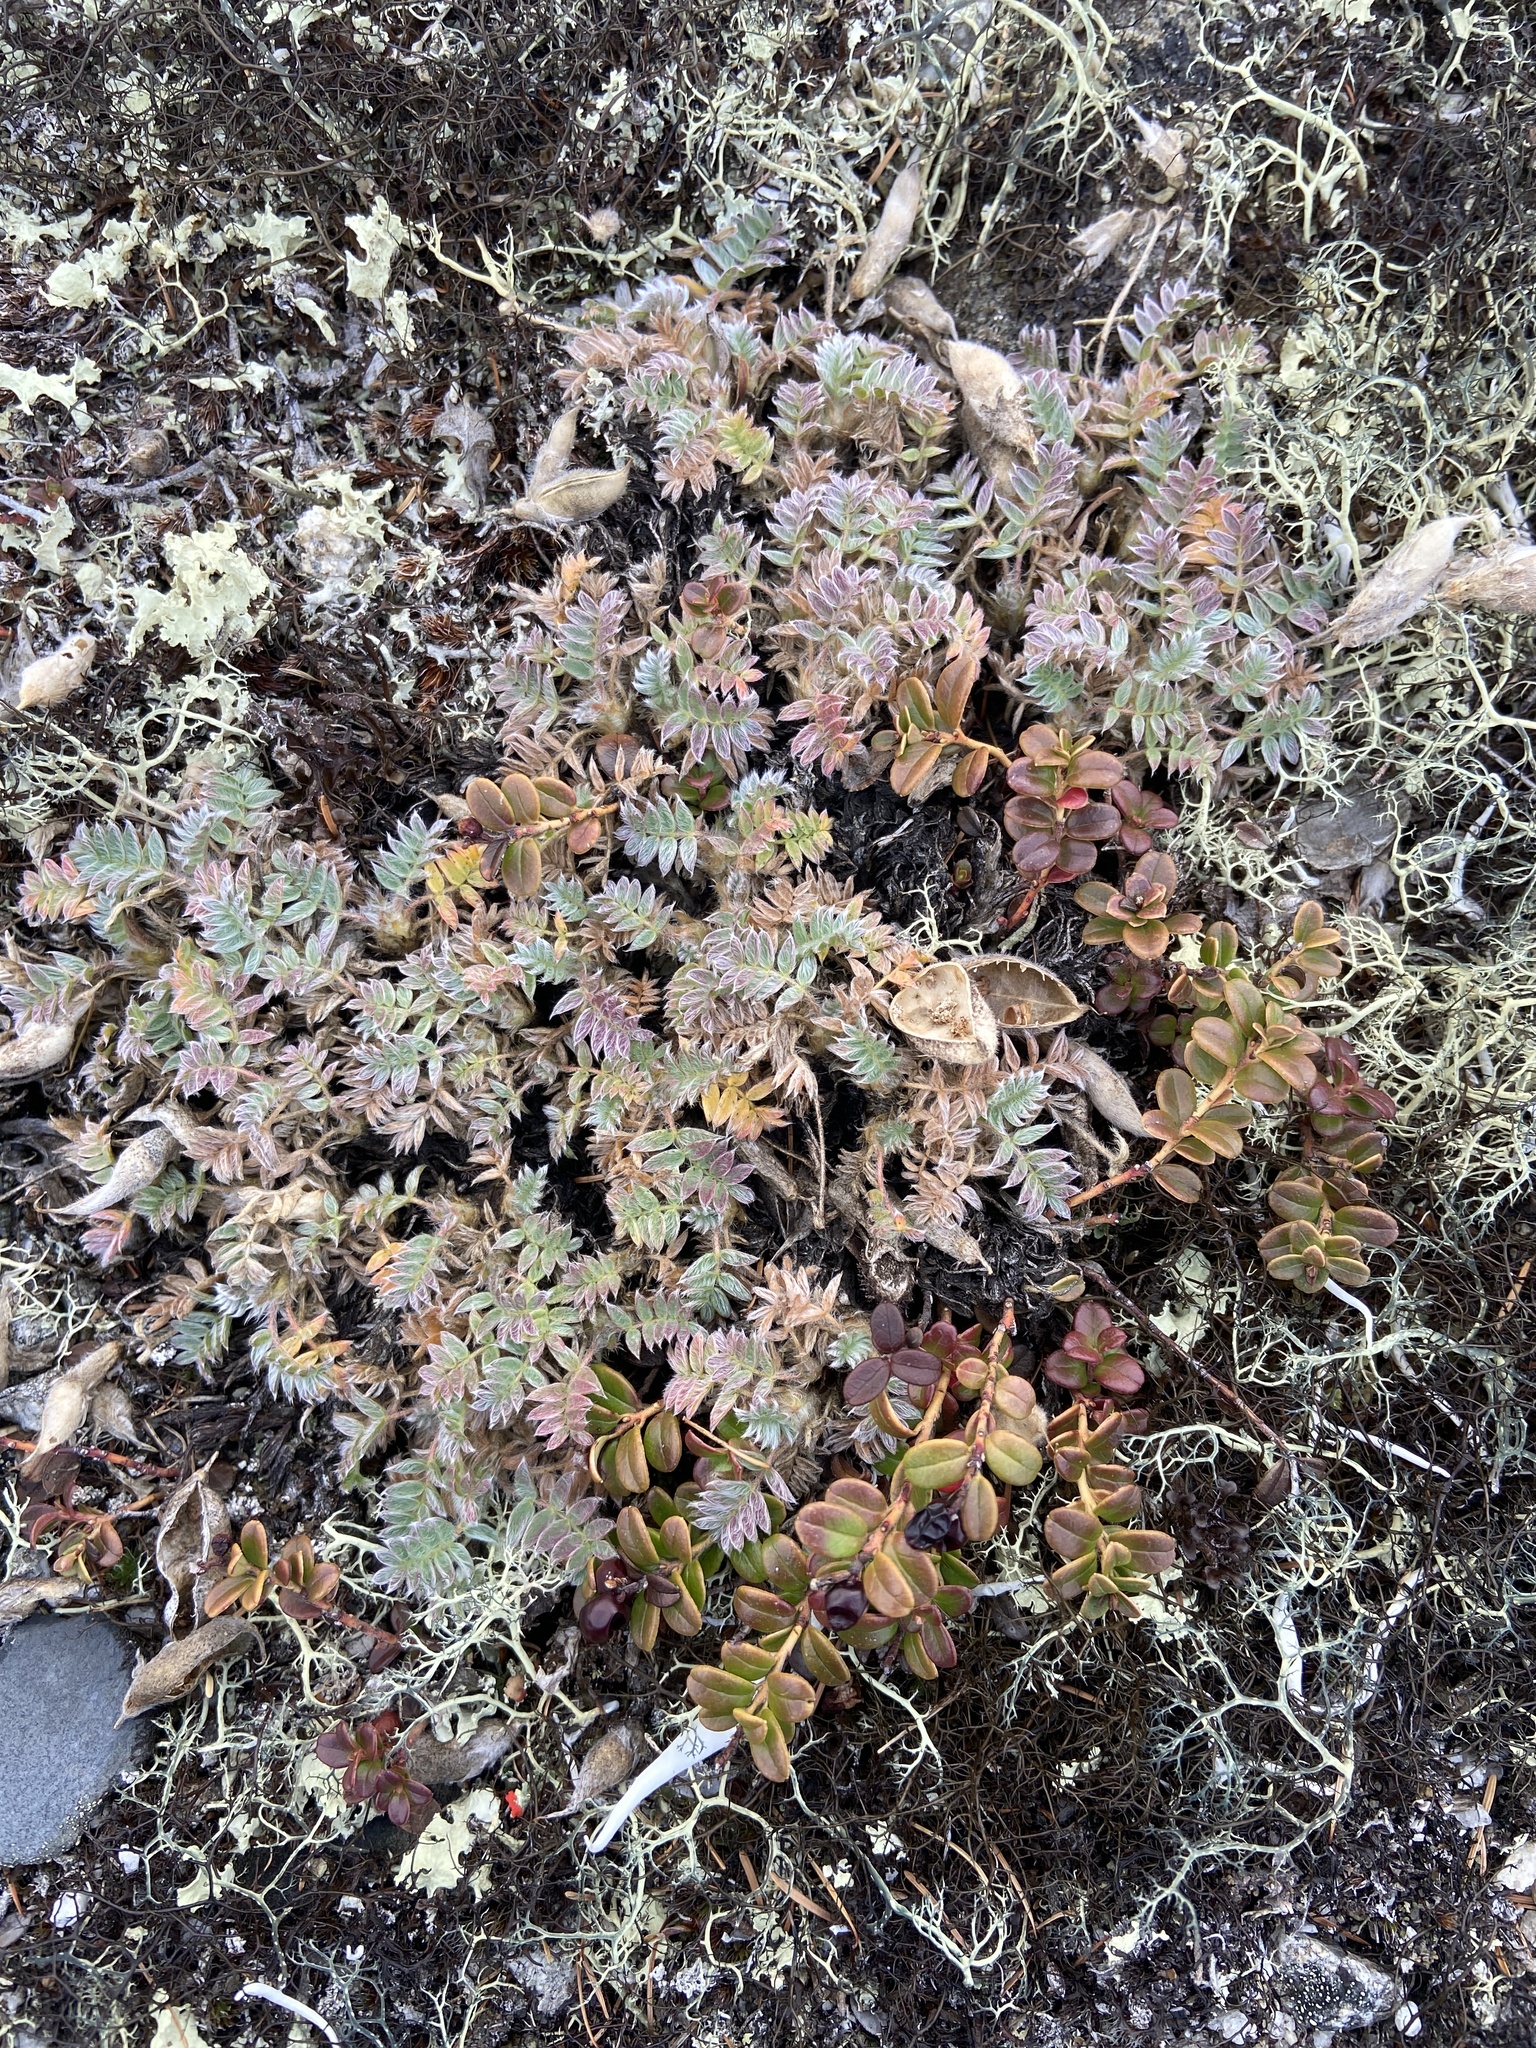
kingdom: Plantae
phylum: Tracheophyta
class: Magnoliopsida
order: Fabales
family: Fabaceae
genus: Oxytropis
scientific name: Oxytropis susumanica
